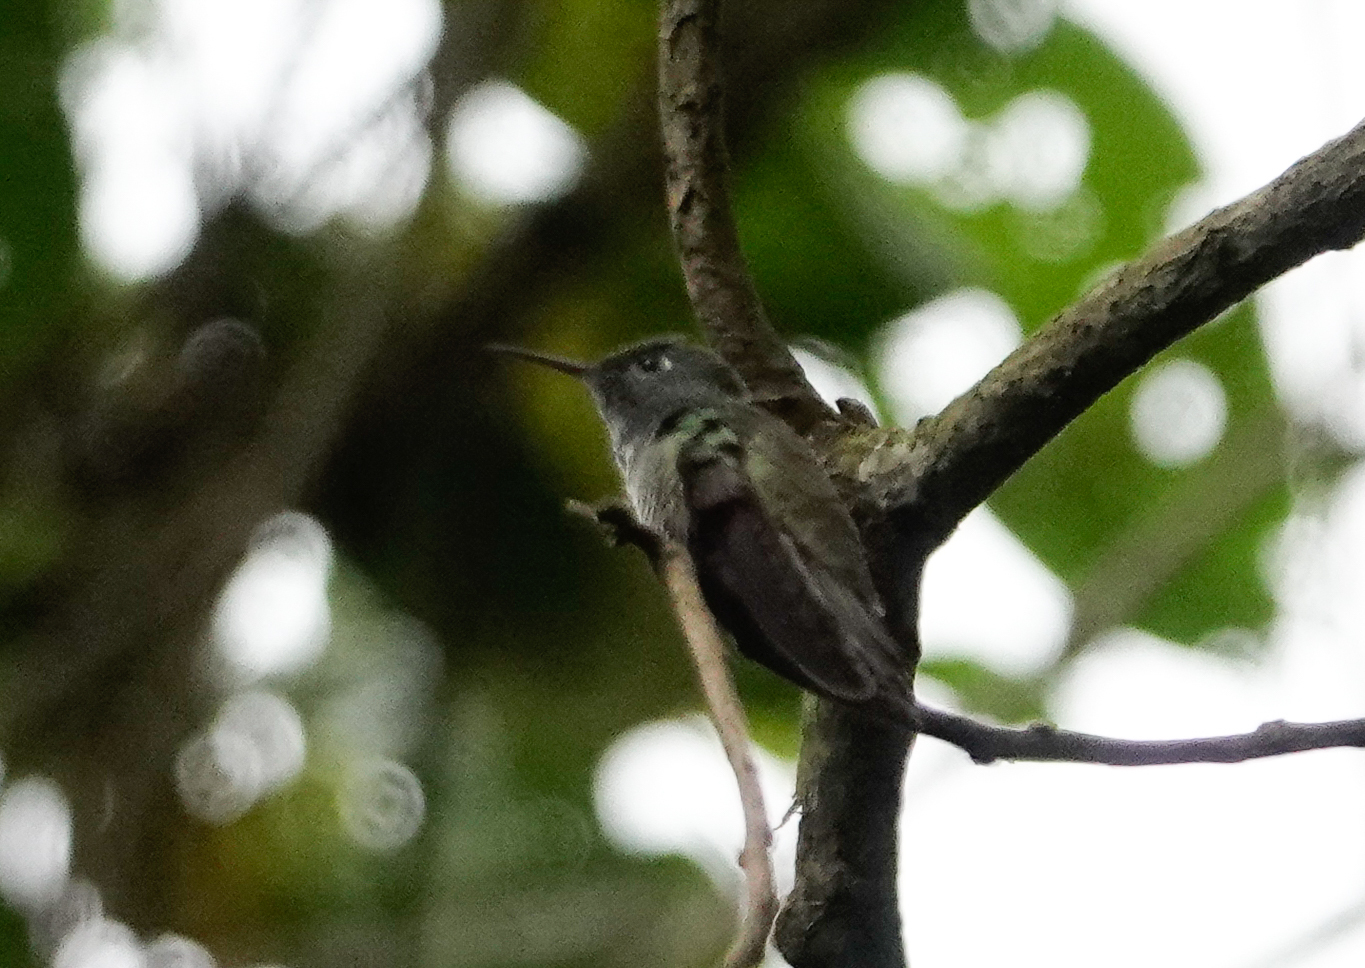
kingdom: Animalia
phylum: Chordata
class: Aves
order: Apodiformes
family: Trochilidae
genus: Chrysuronia
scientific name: Chrysuronia versicolor
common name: Versicolored emerald
